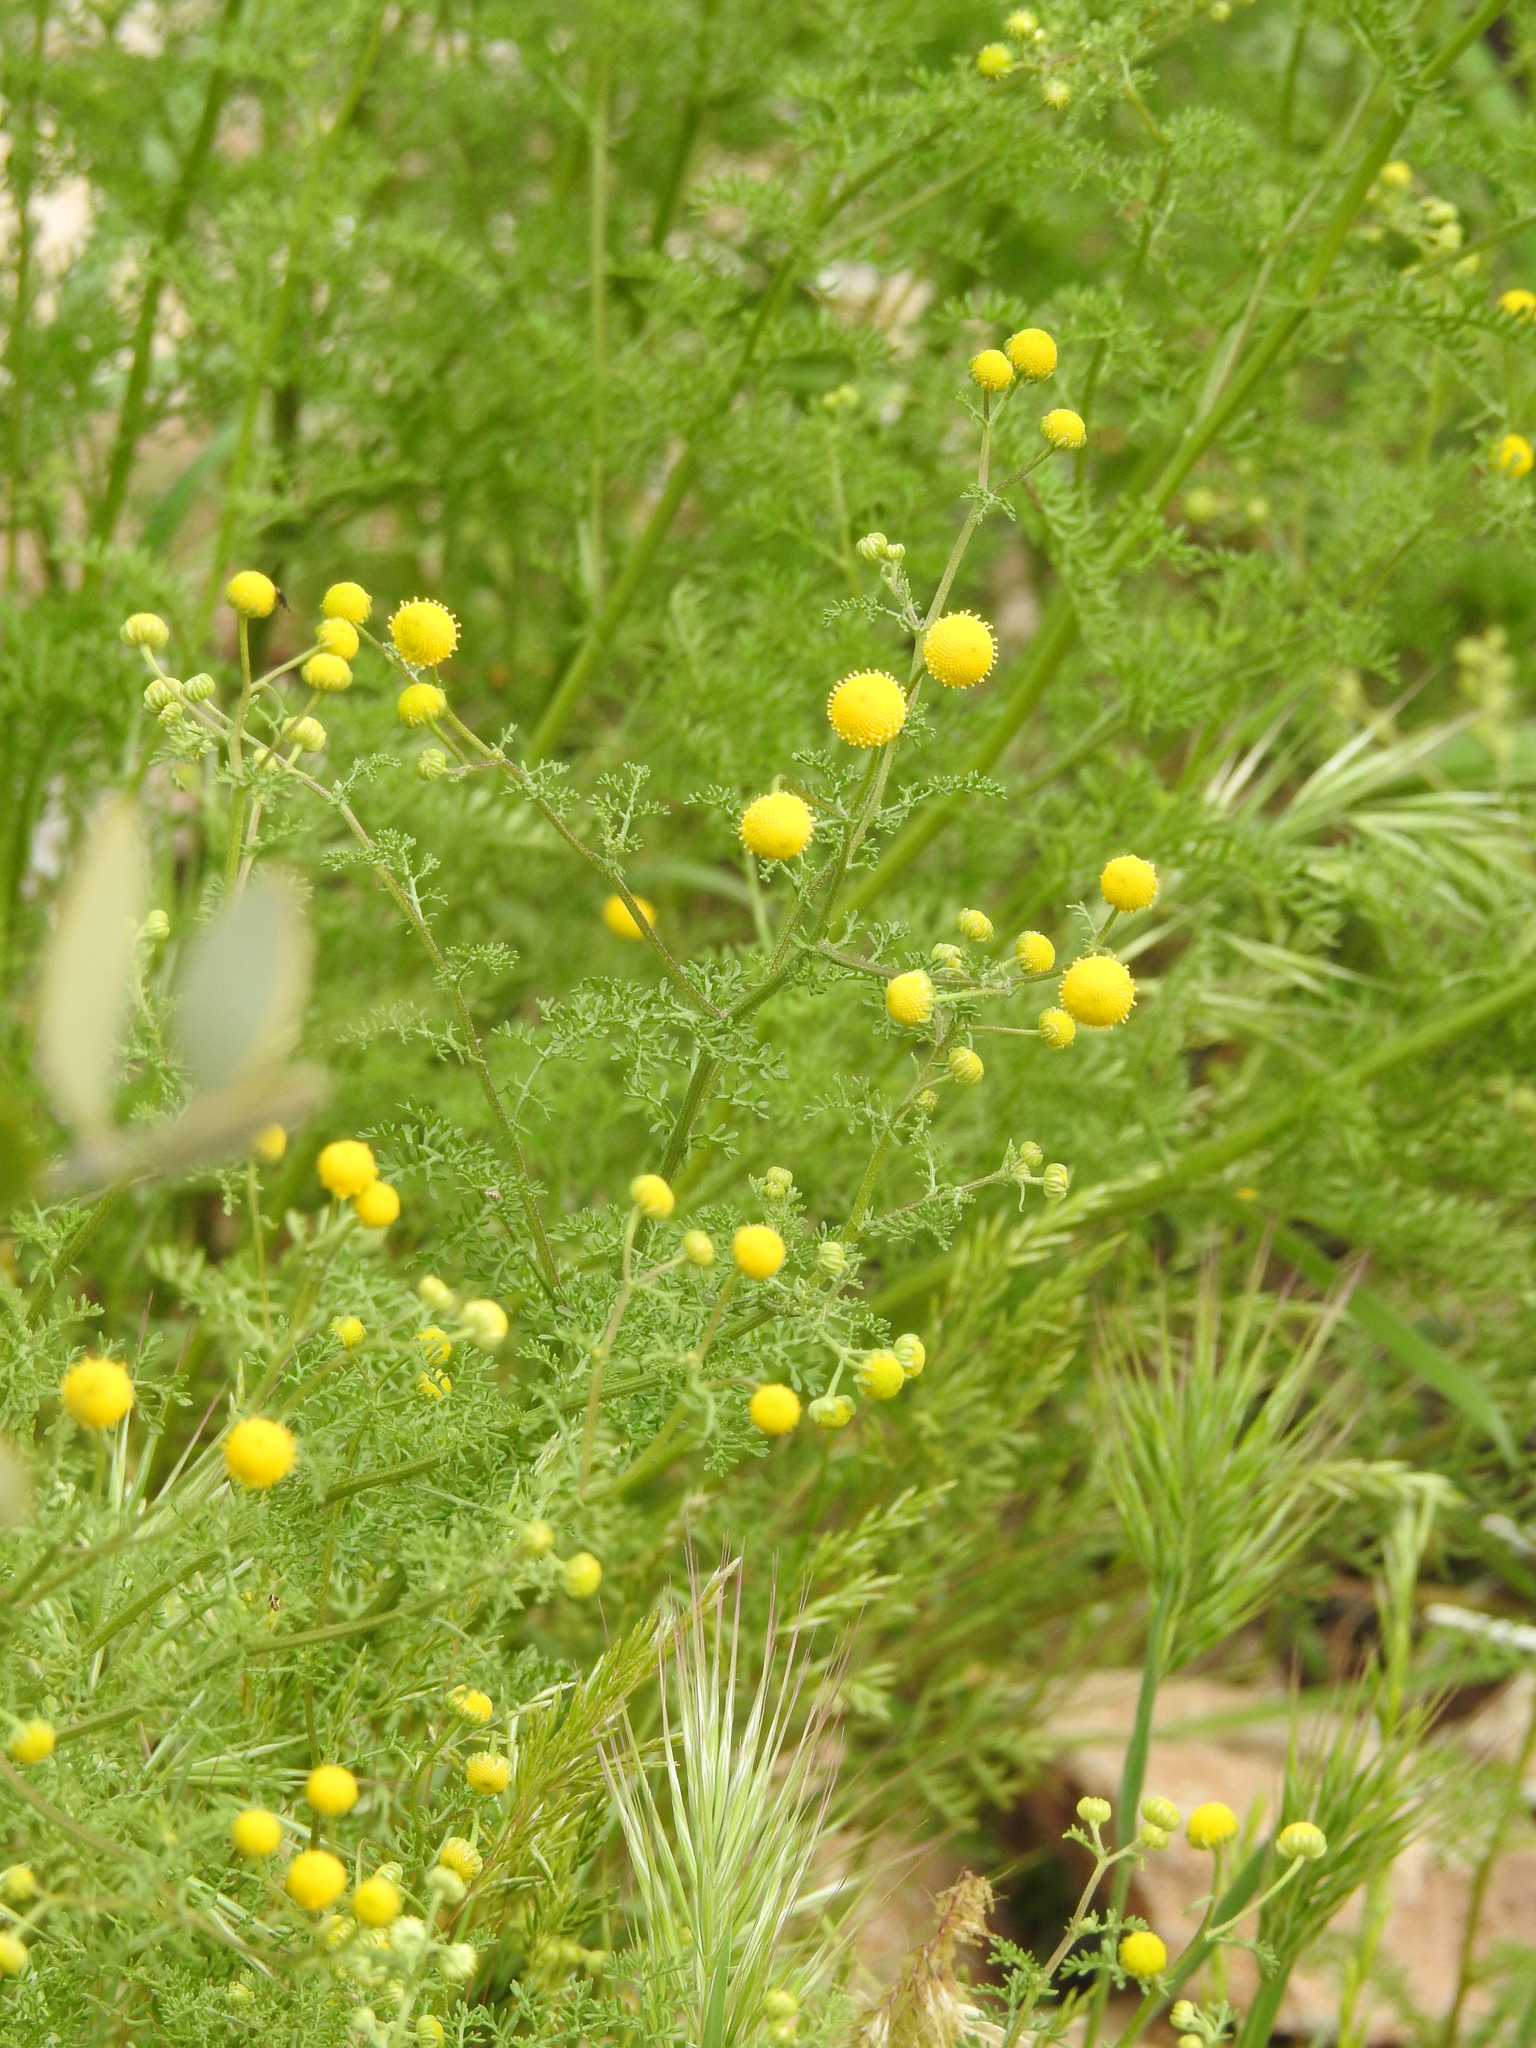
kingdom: Plantae
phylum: Tracheophyta
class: Magnoliopsida
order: Asterales
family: Asteraceae
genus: Oncosiphon
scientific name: Oncosiphon pilulifer
